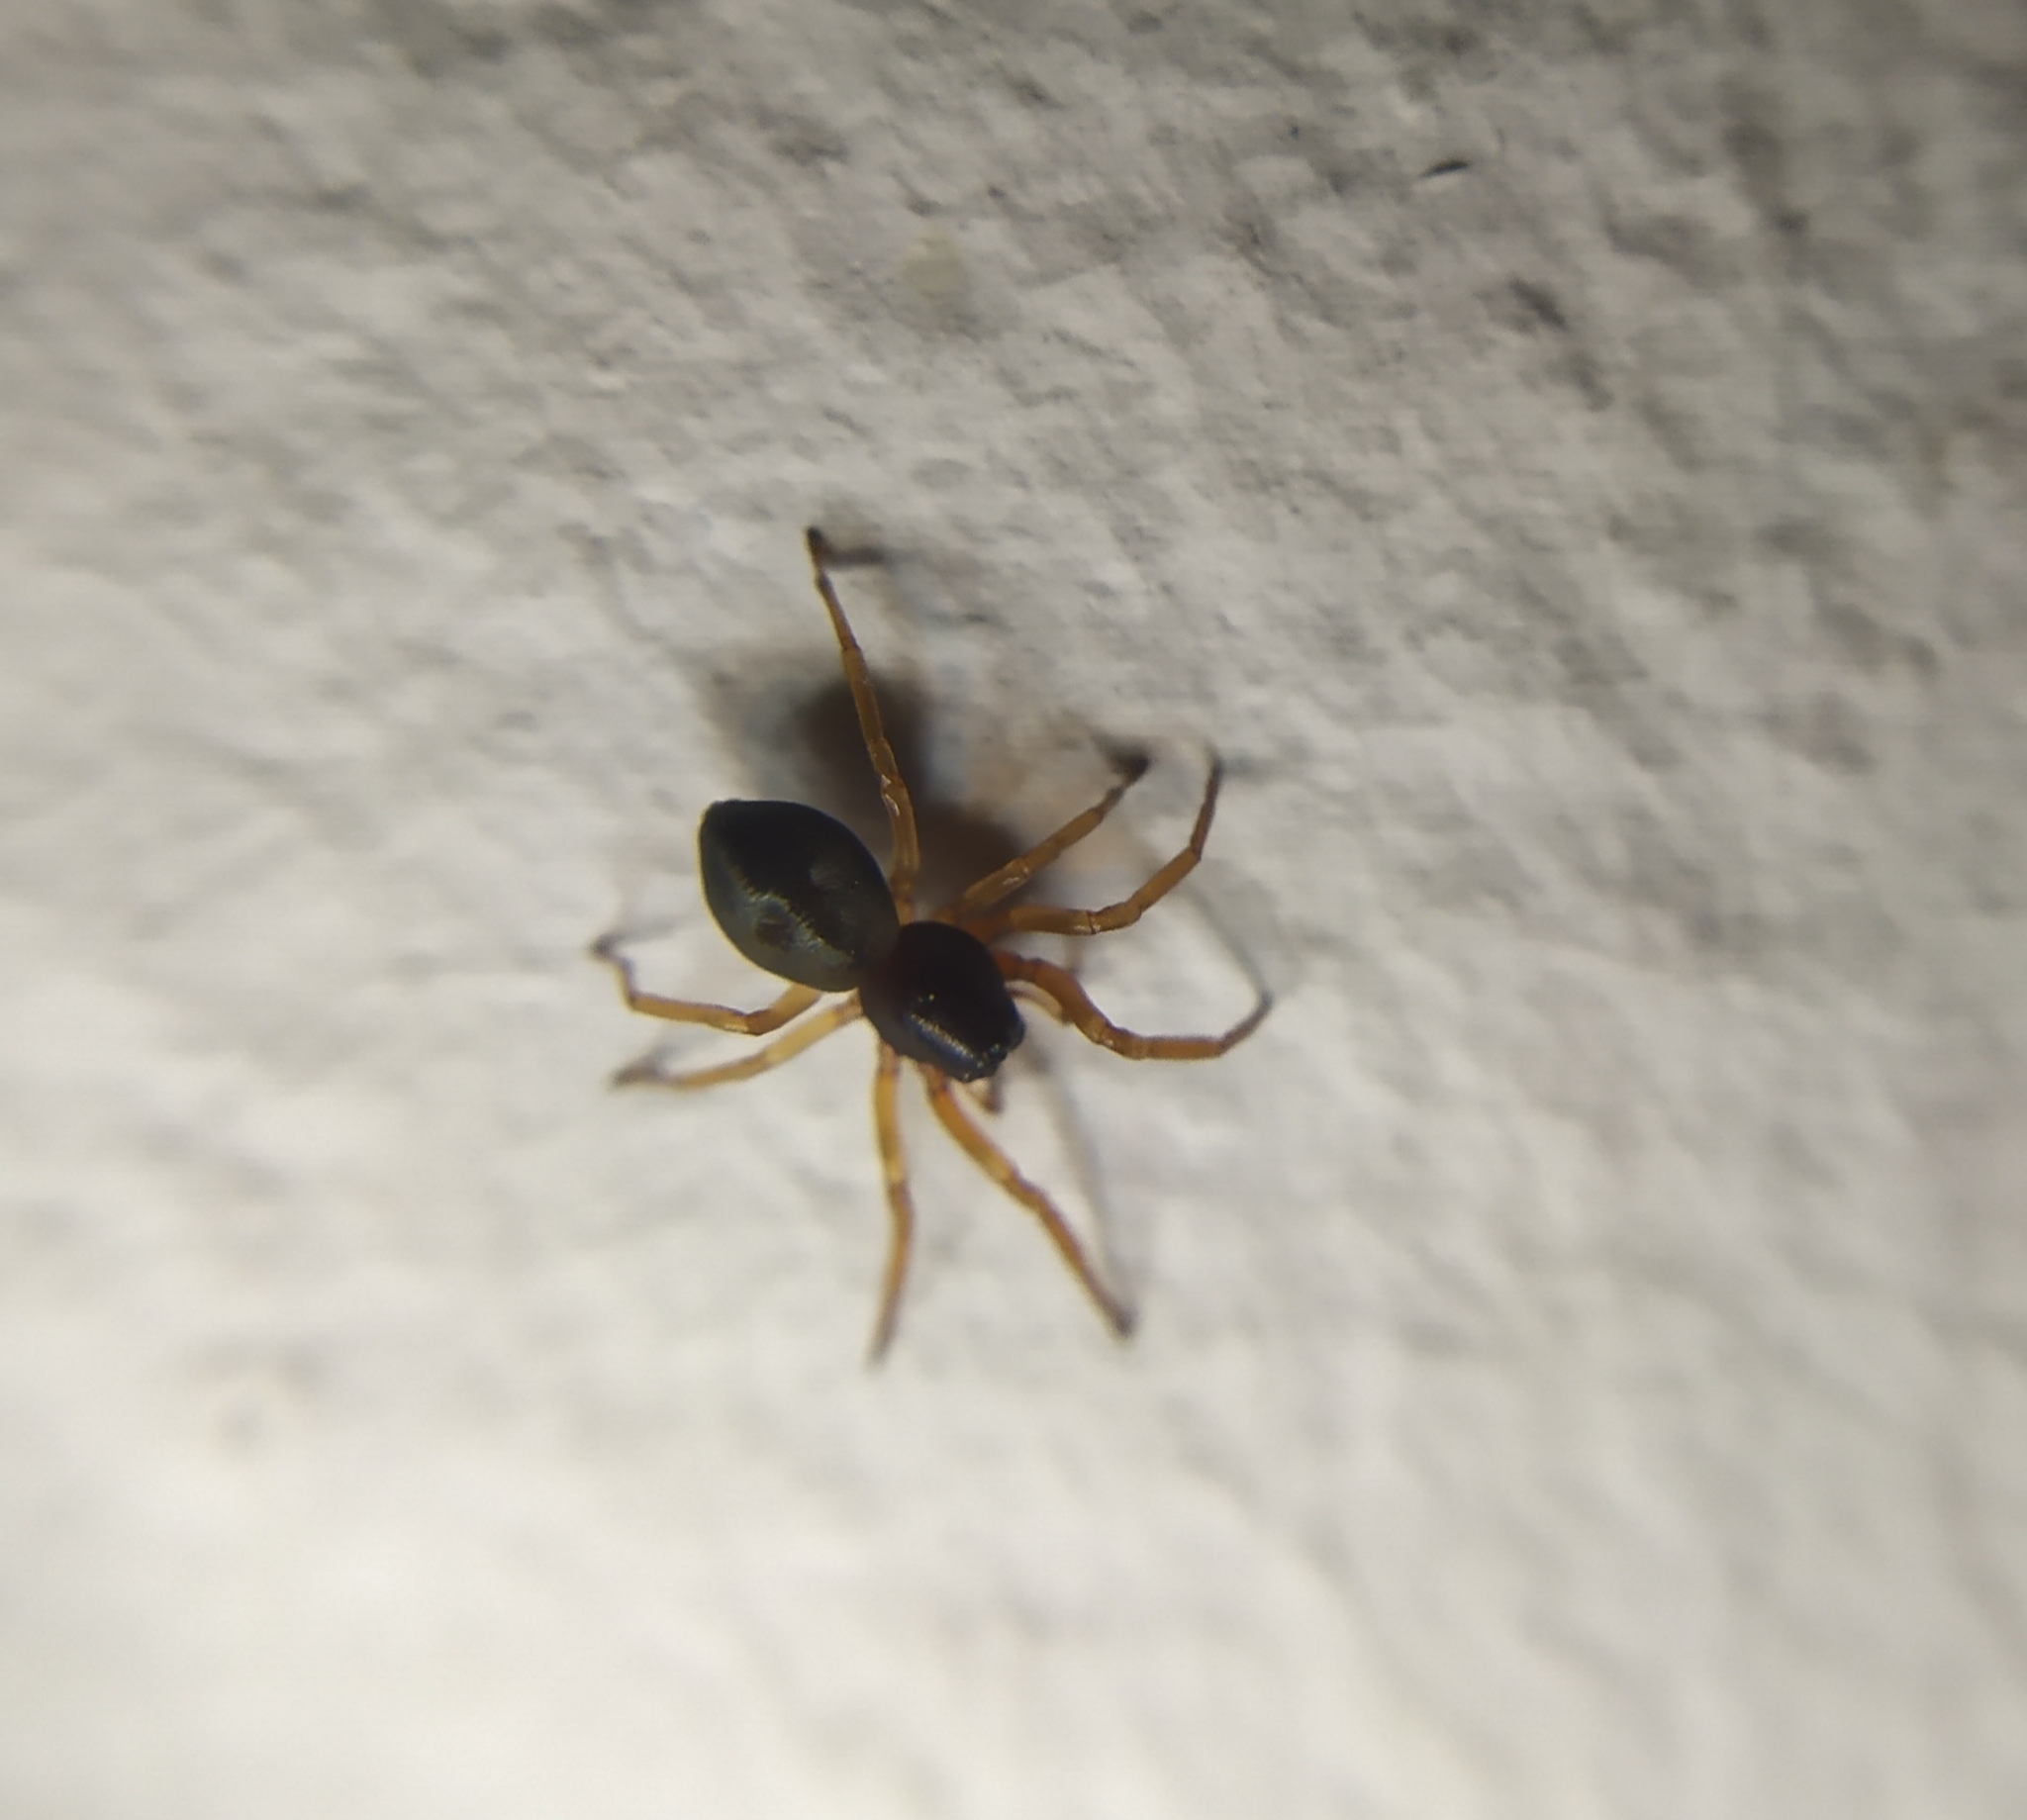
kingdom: Animalia
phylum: Arthropoda
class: Arachnida
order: Araneae
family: Trachelidae
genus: Cetonana
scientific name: Cetonana laticeps
